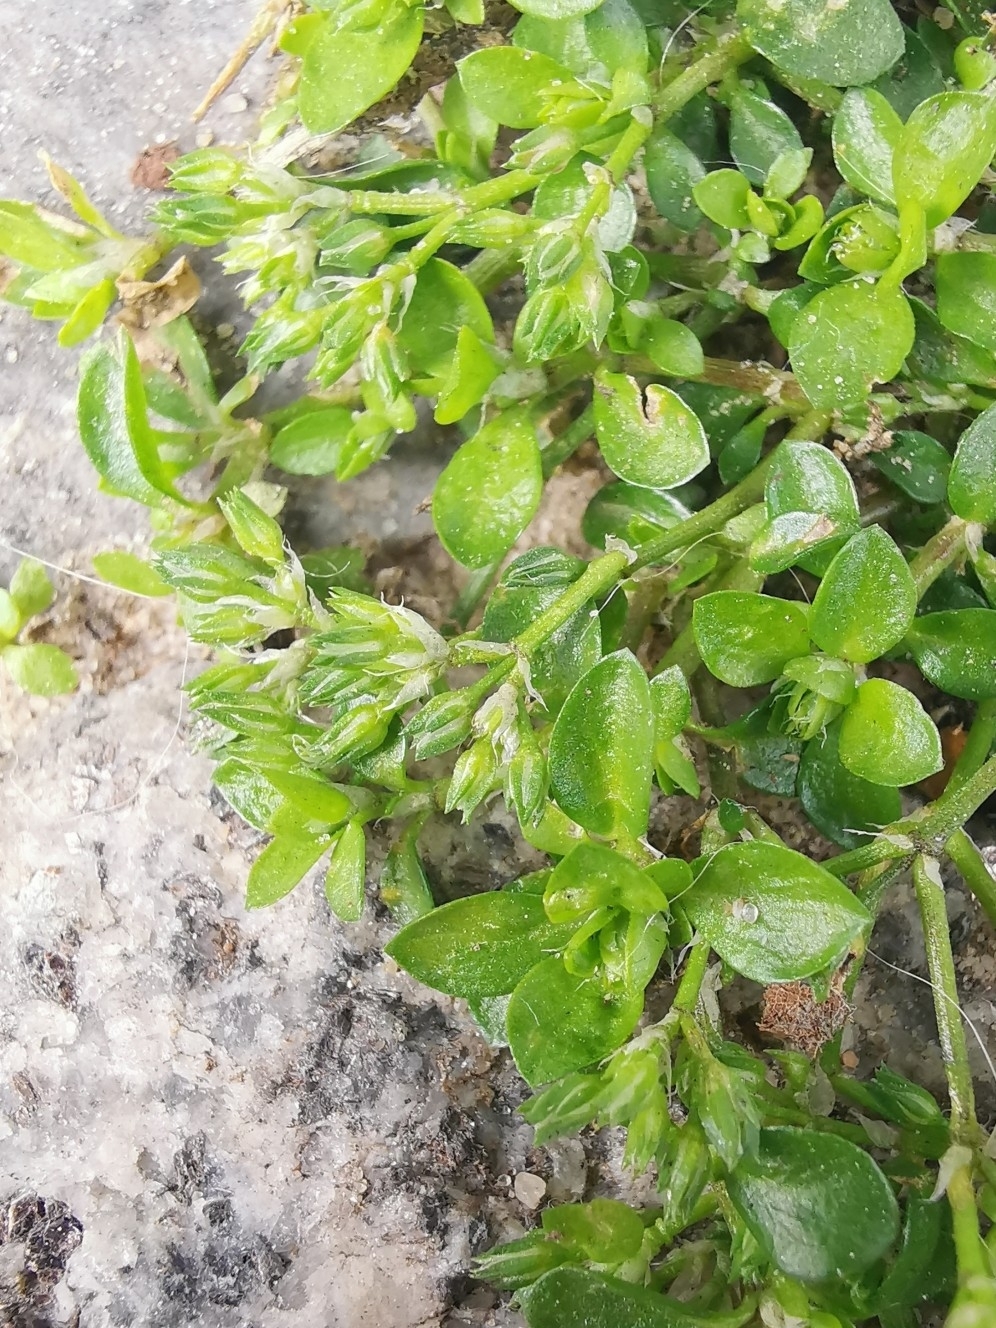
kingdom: Plantae
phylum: Tracheophyta
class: Magnoliopsida
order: Caryophyllales
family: Caryophyllaceae
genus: Polycarpon
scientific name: Polycarpon tetraphyllum
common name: Four-leaved all-seed
